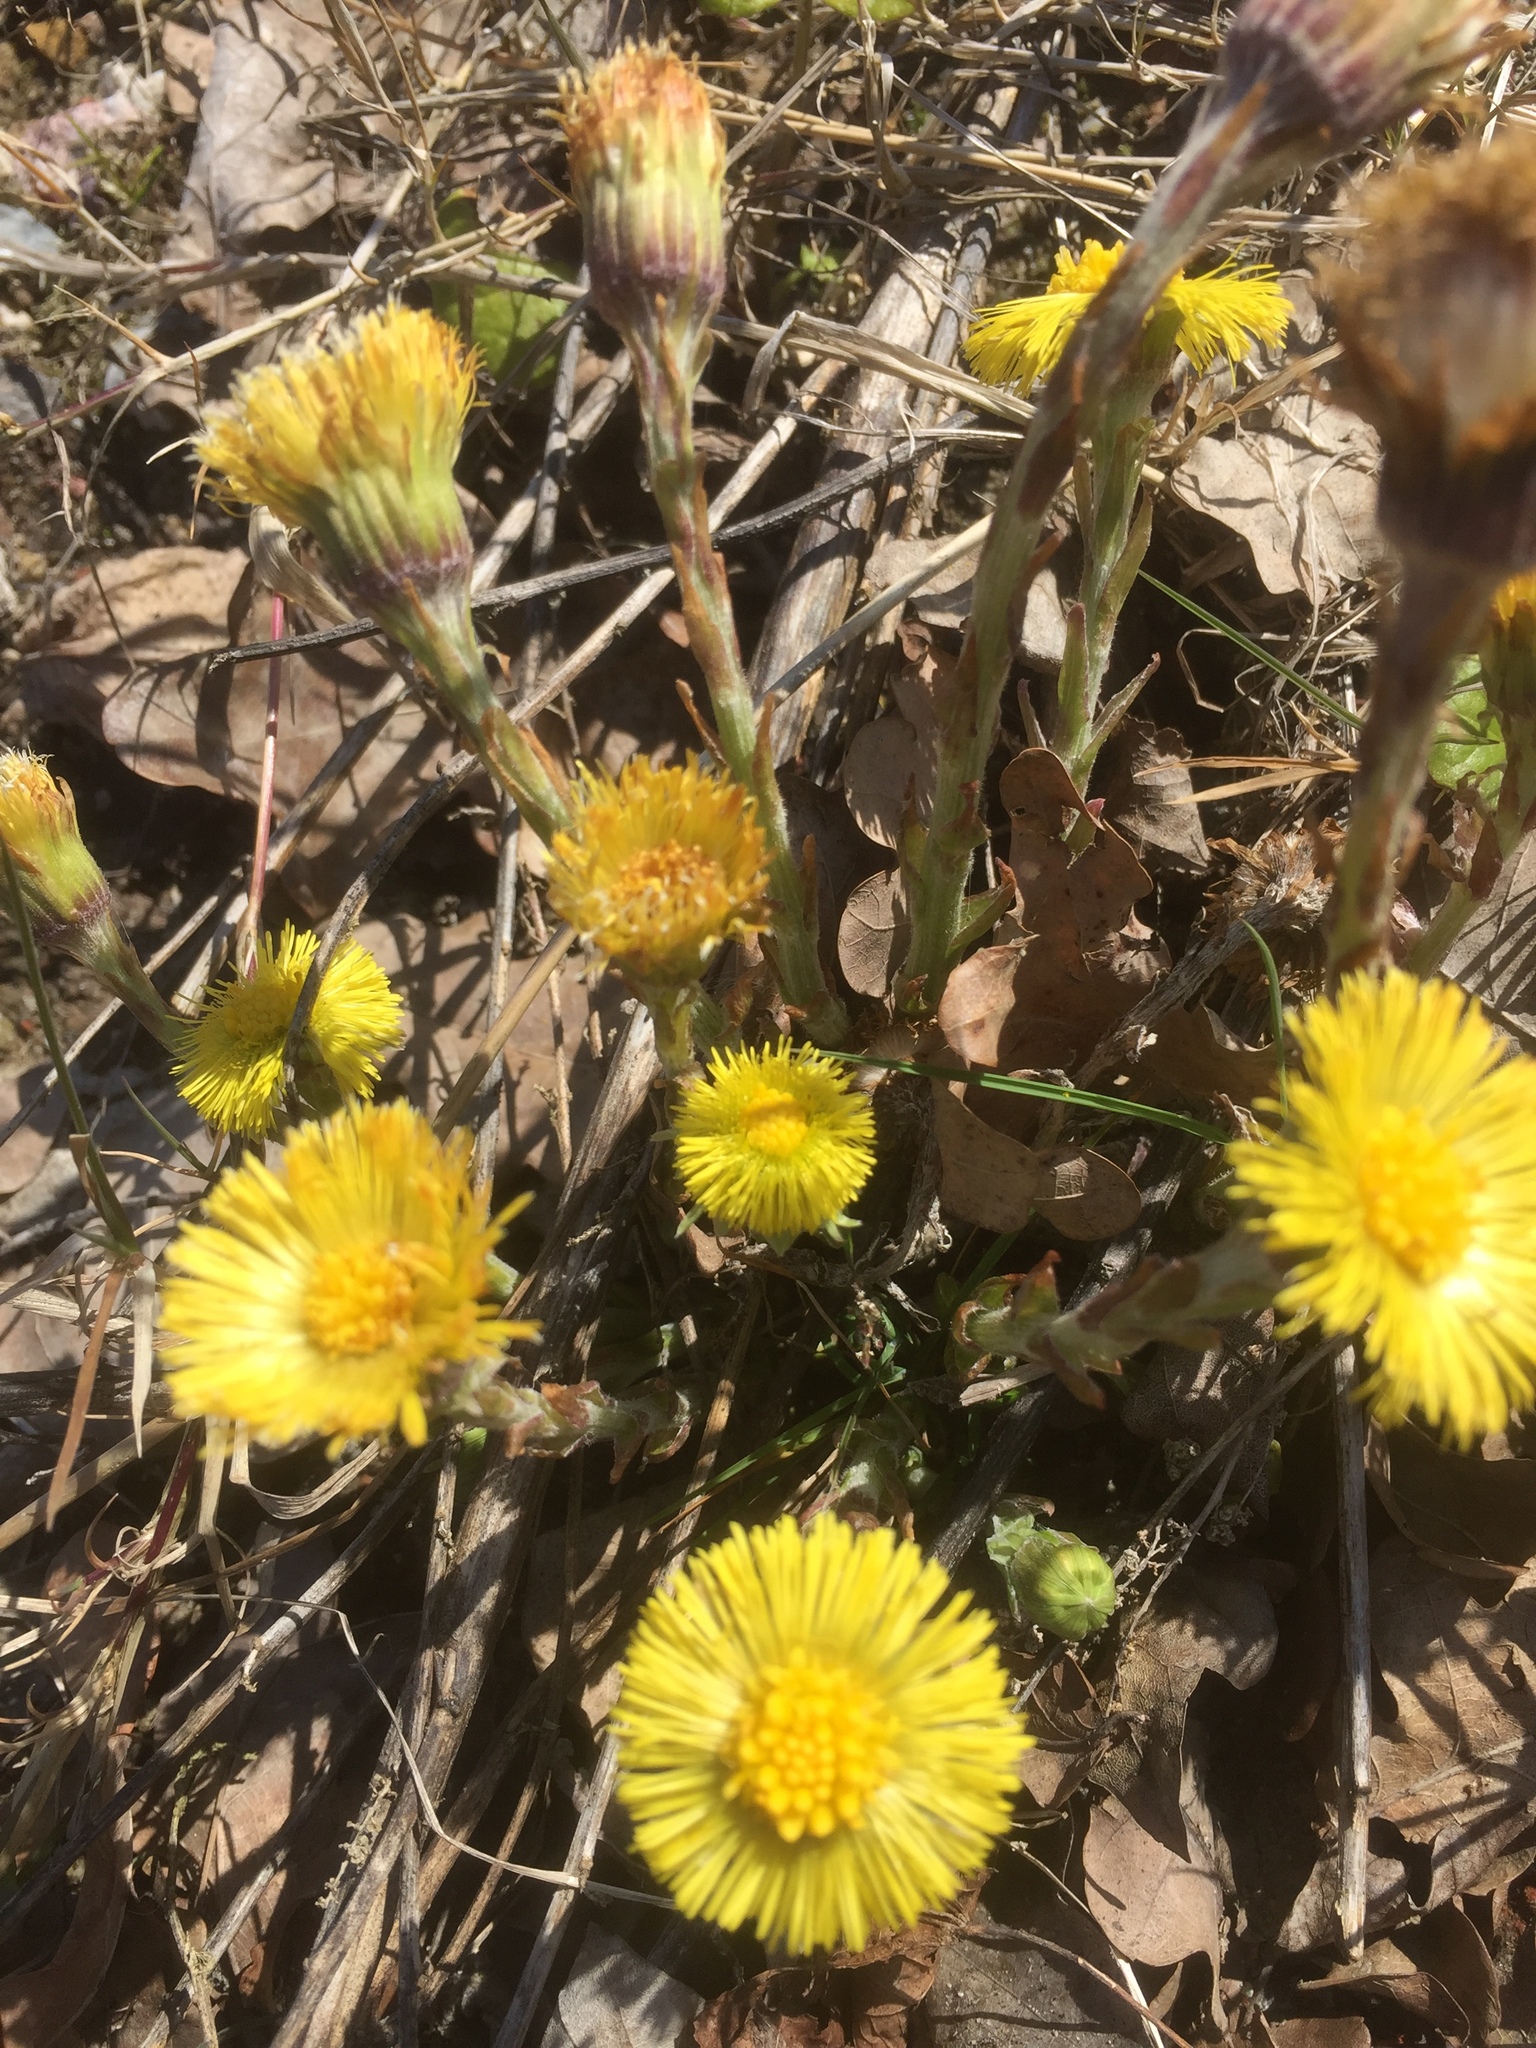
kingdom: Plantae
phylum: Tracheophyta
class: Magnoliopsida
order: Asterales
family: Asteraceae
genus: Tussilago
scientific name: Tussilago farfara
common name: Coltsfoot
